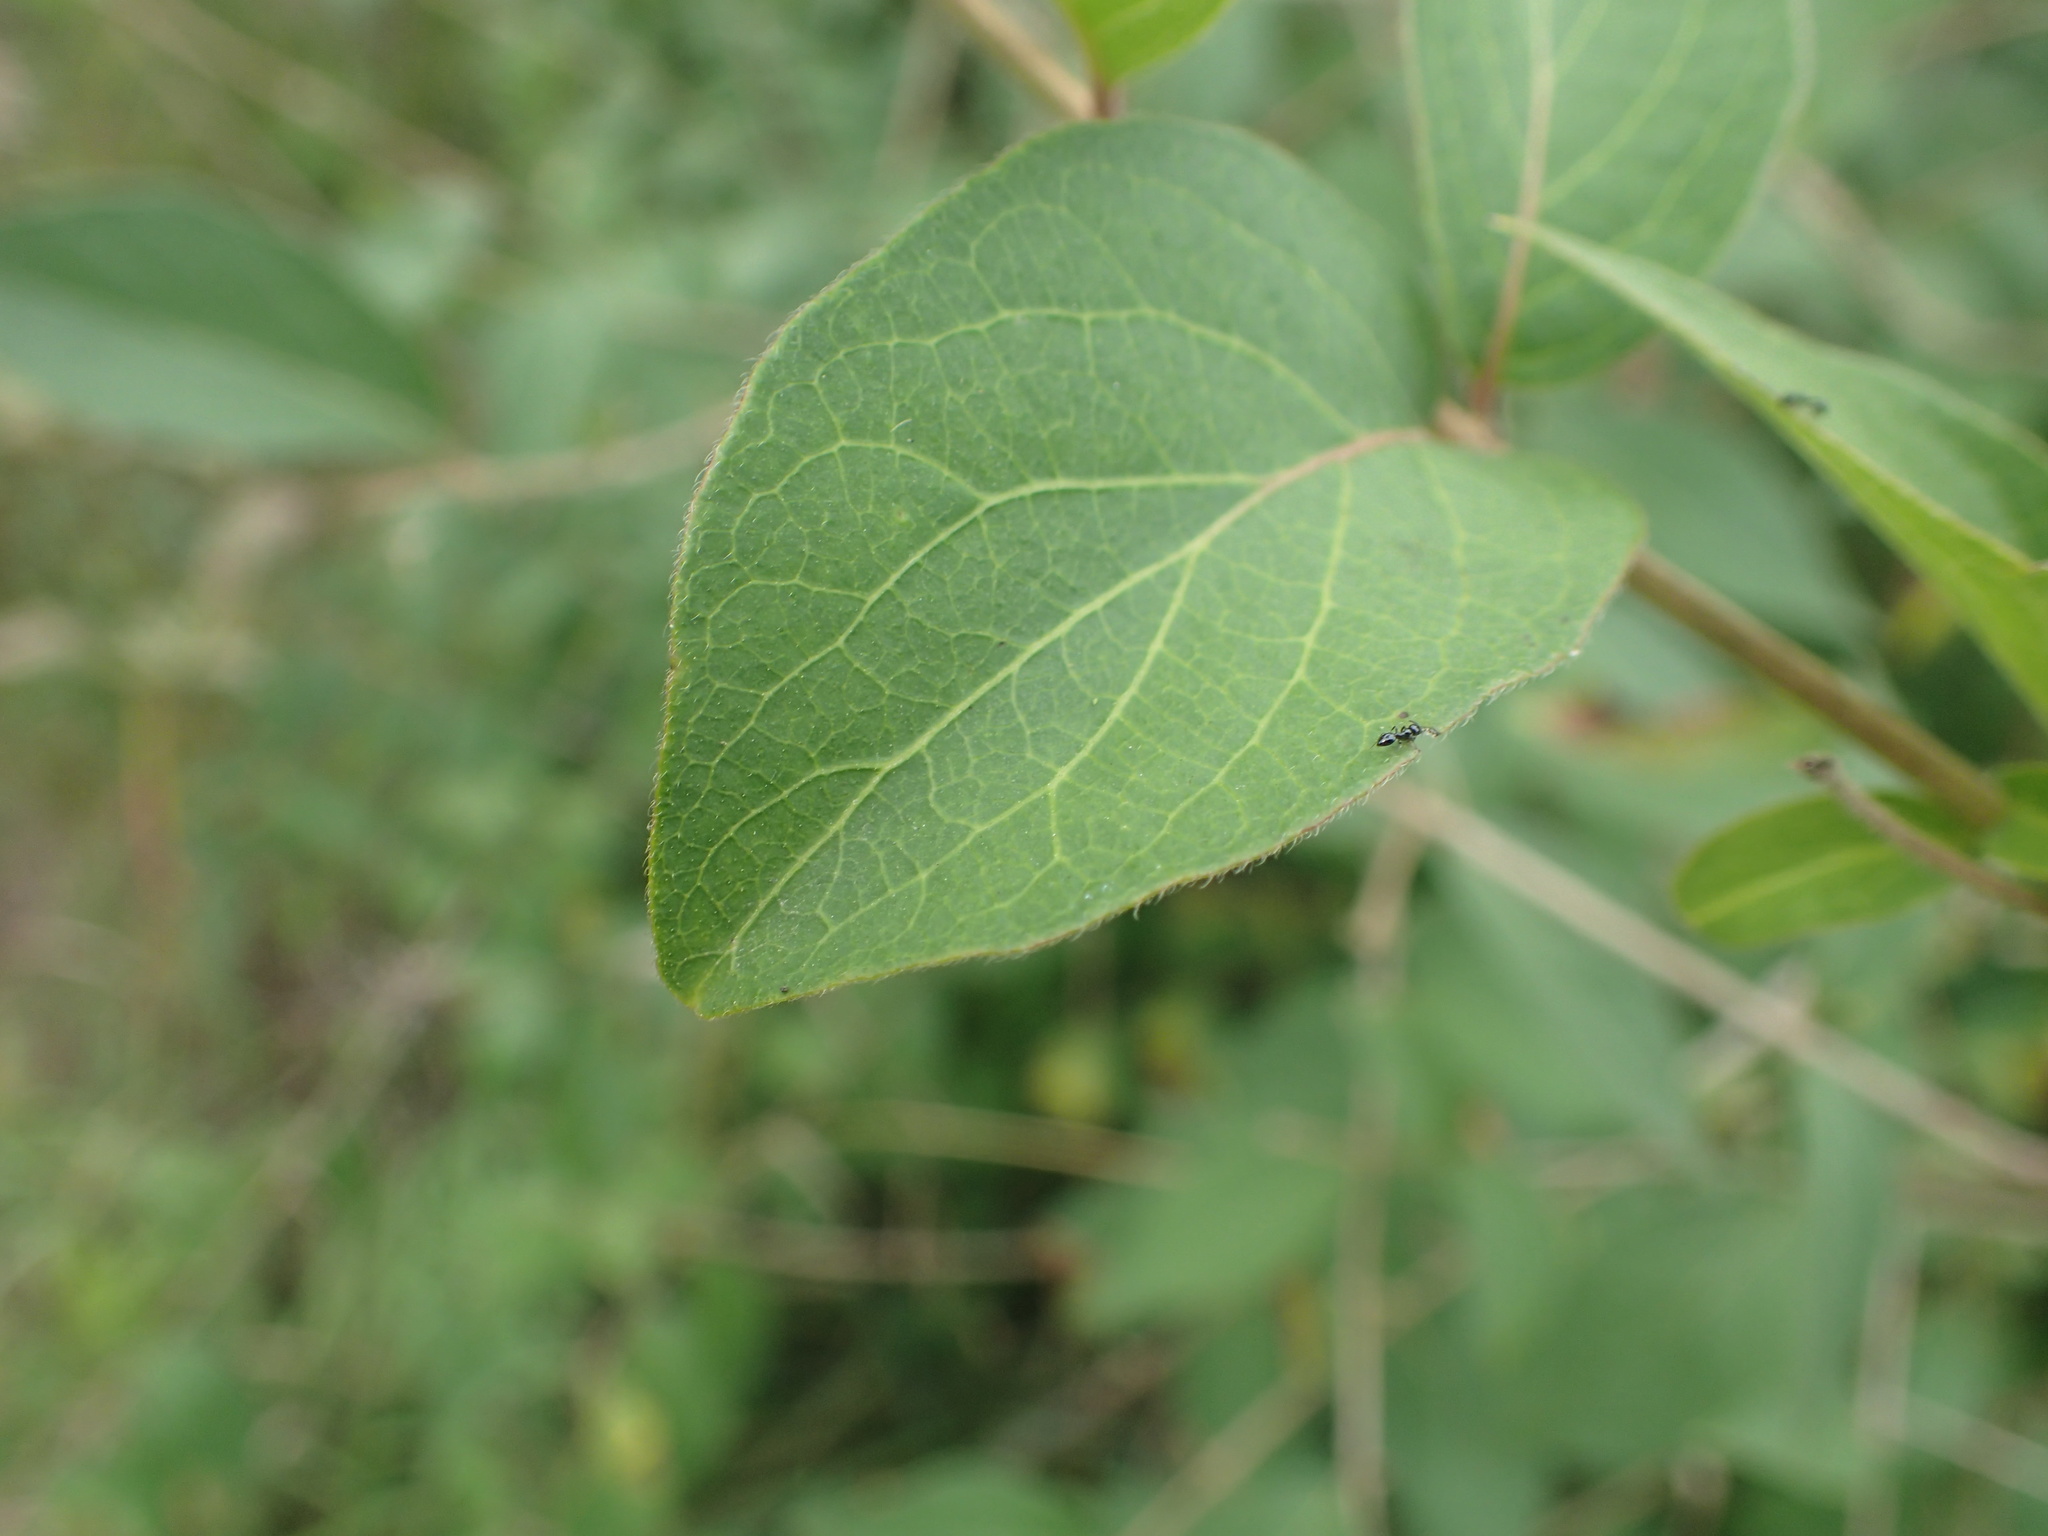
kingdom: Plantae
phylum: Tracheophyta
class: Magnoliopsida
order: Dipsacales
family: Caprifoliaceae
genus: Lonicera
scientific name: Lonicera maackii
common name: Amur honeysuckle
